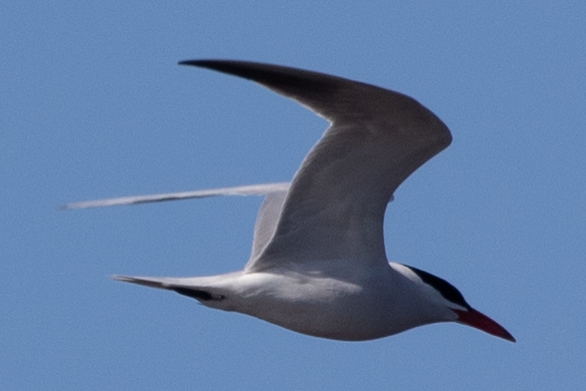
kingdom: Animalia
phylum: Chordata
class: Aves
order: Charadriiformes
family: Laridae
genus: Hydroprogne
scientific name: Hydroprogne caspia
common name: Caspian tern
